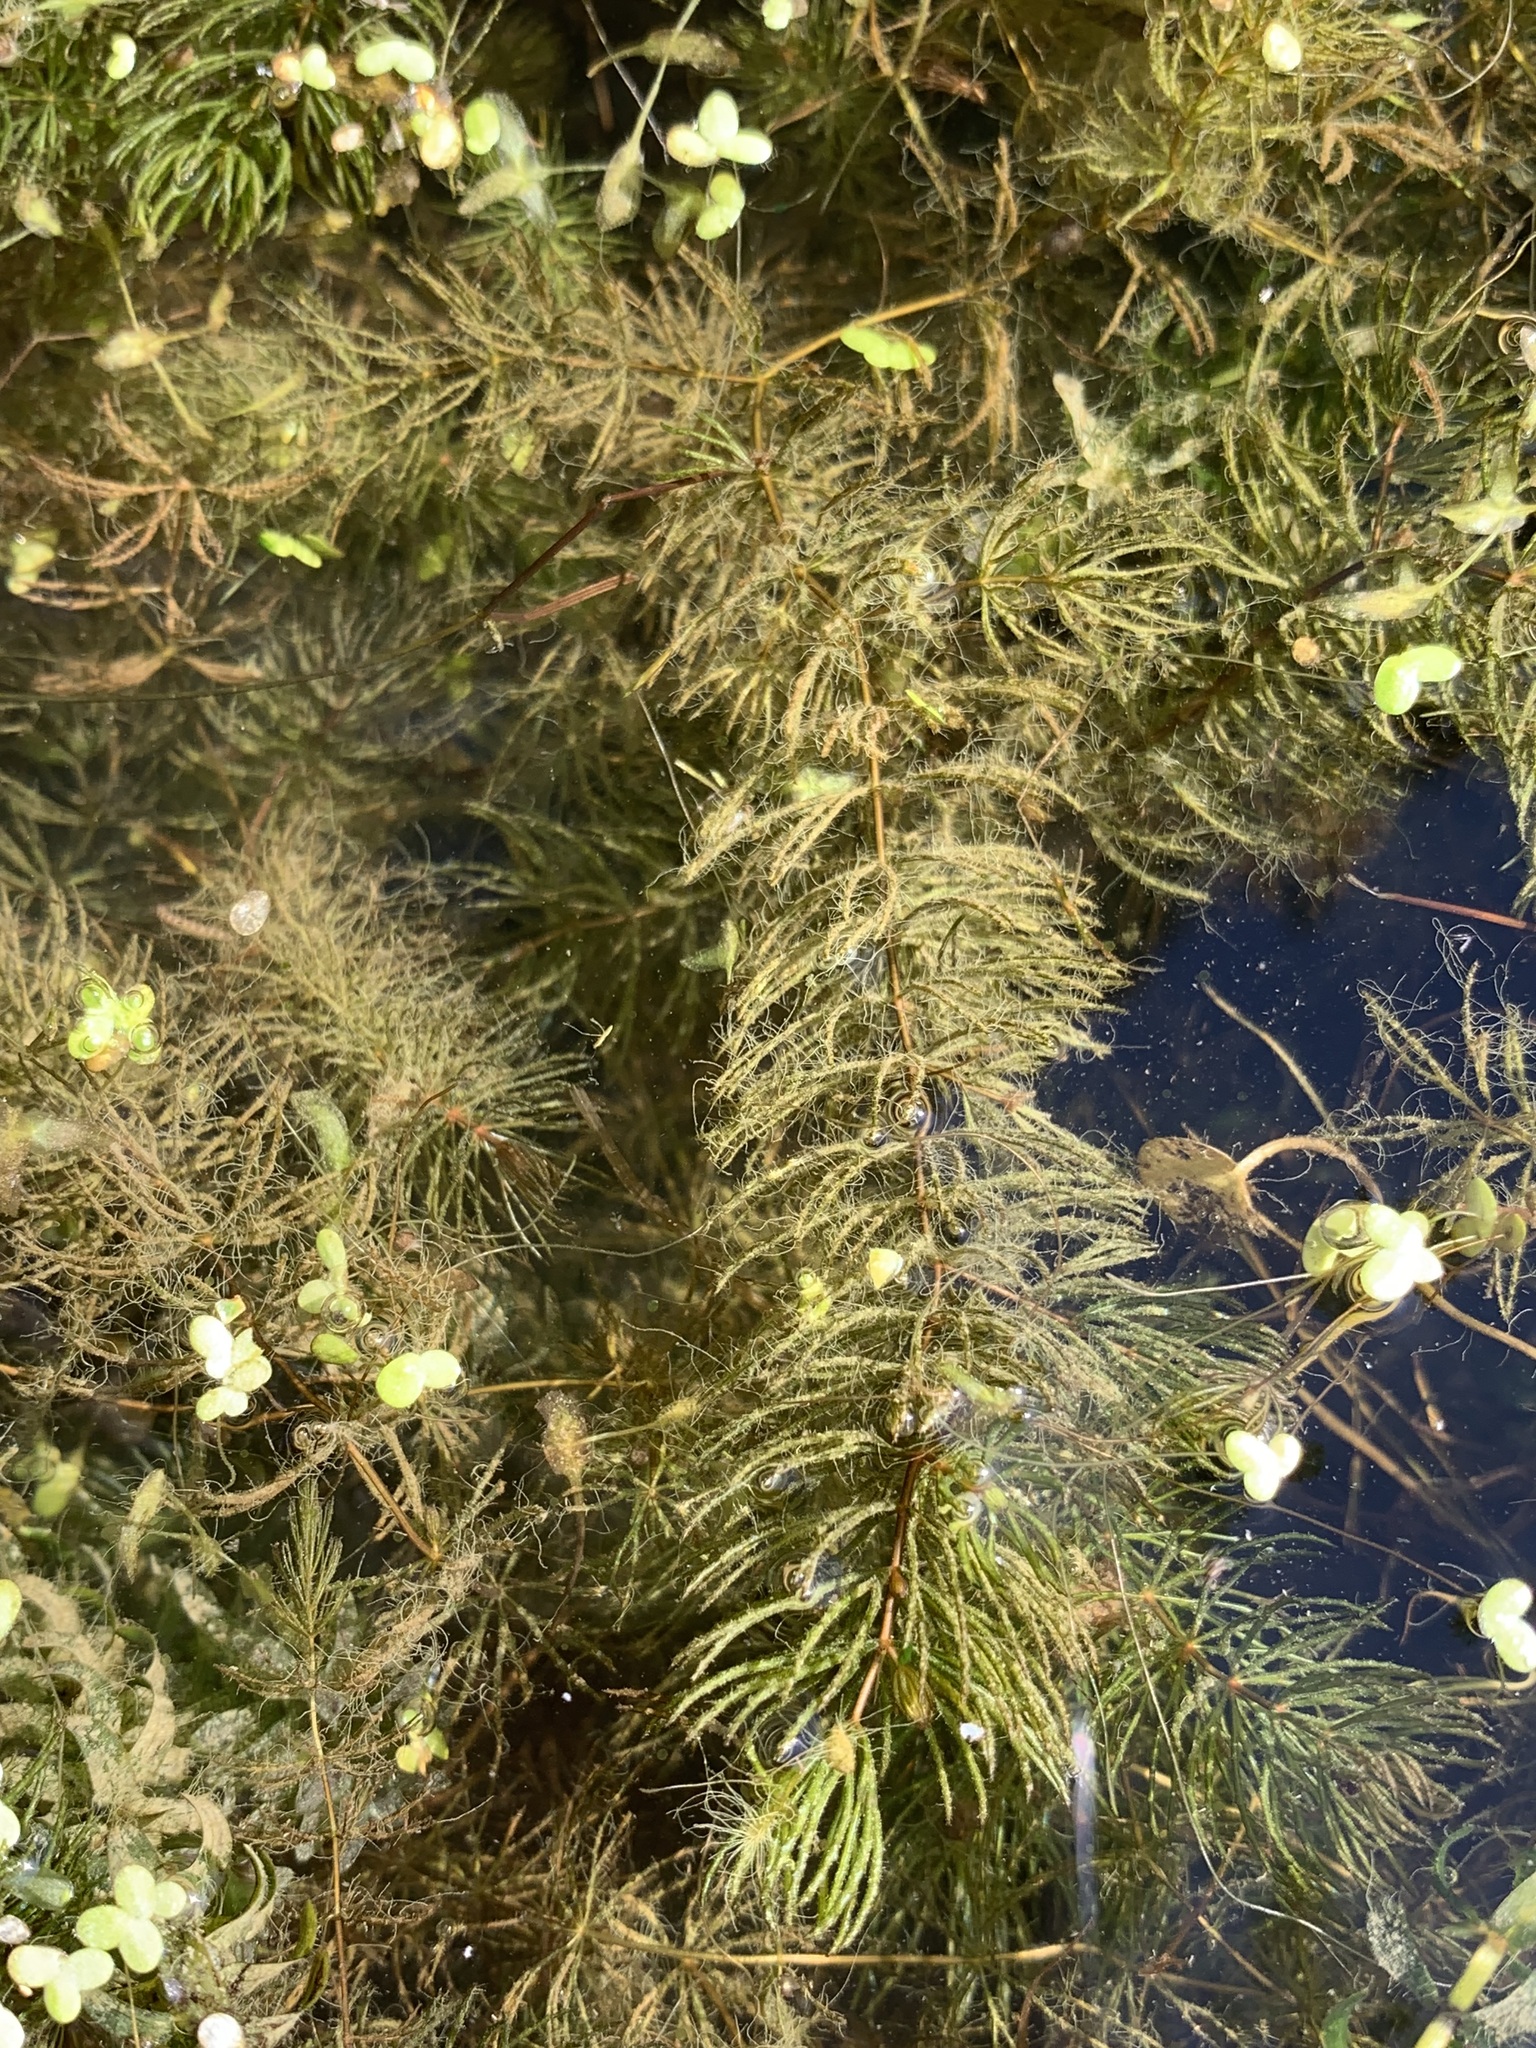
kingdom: Plantae
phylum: Tracheophyta
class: Magnoliopsida
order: Ceratophyllales
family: Ceratophyllaceae
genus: Ceratophyllum
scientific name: Ceratophyllum demersum
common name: Rigid hornwort
